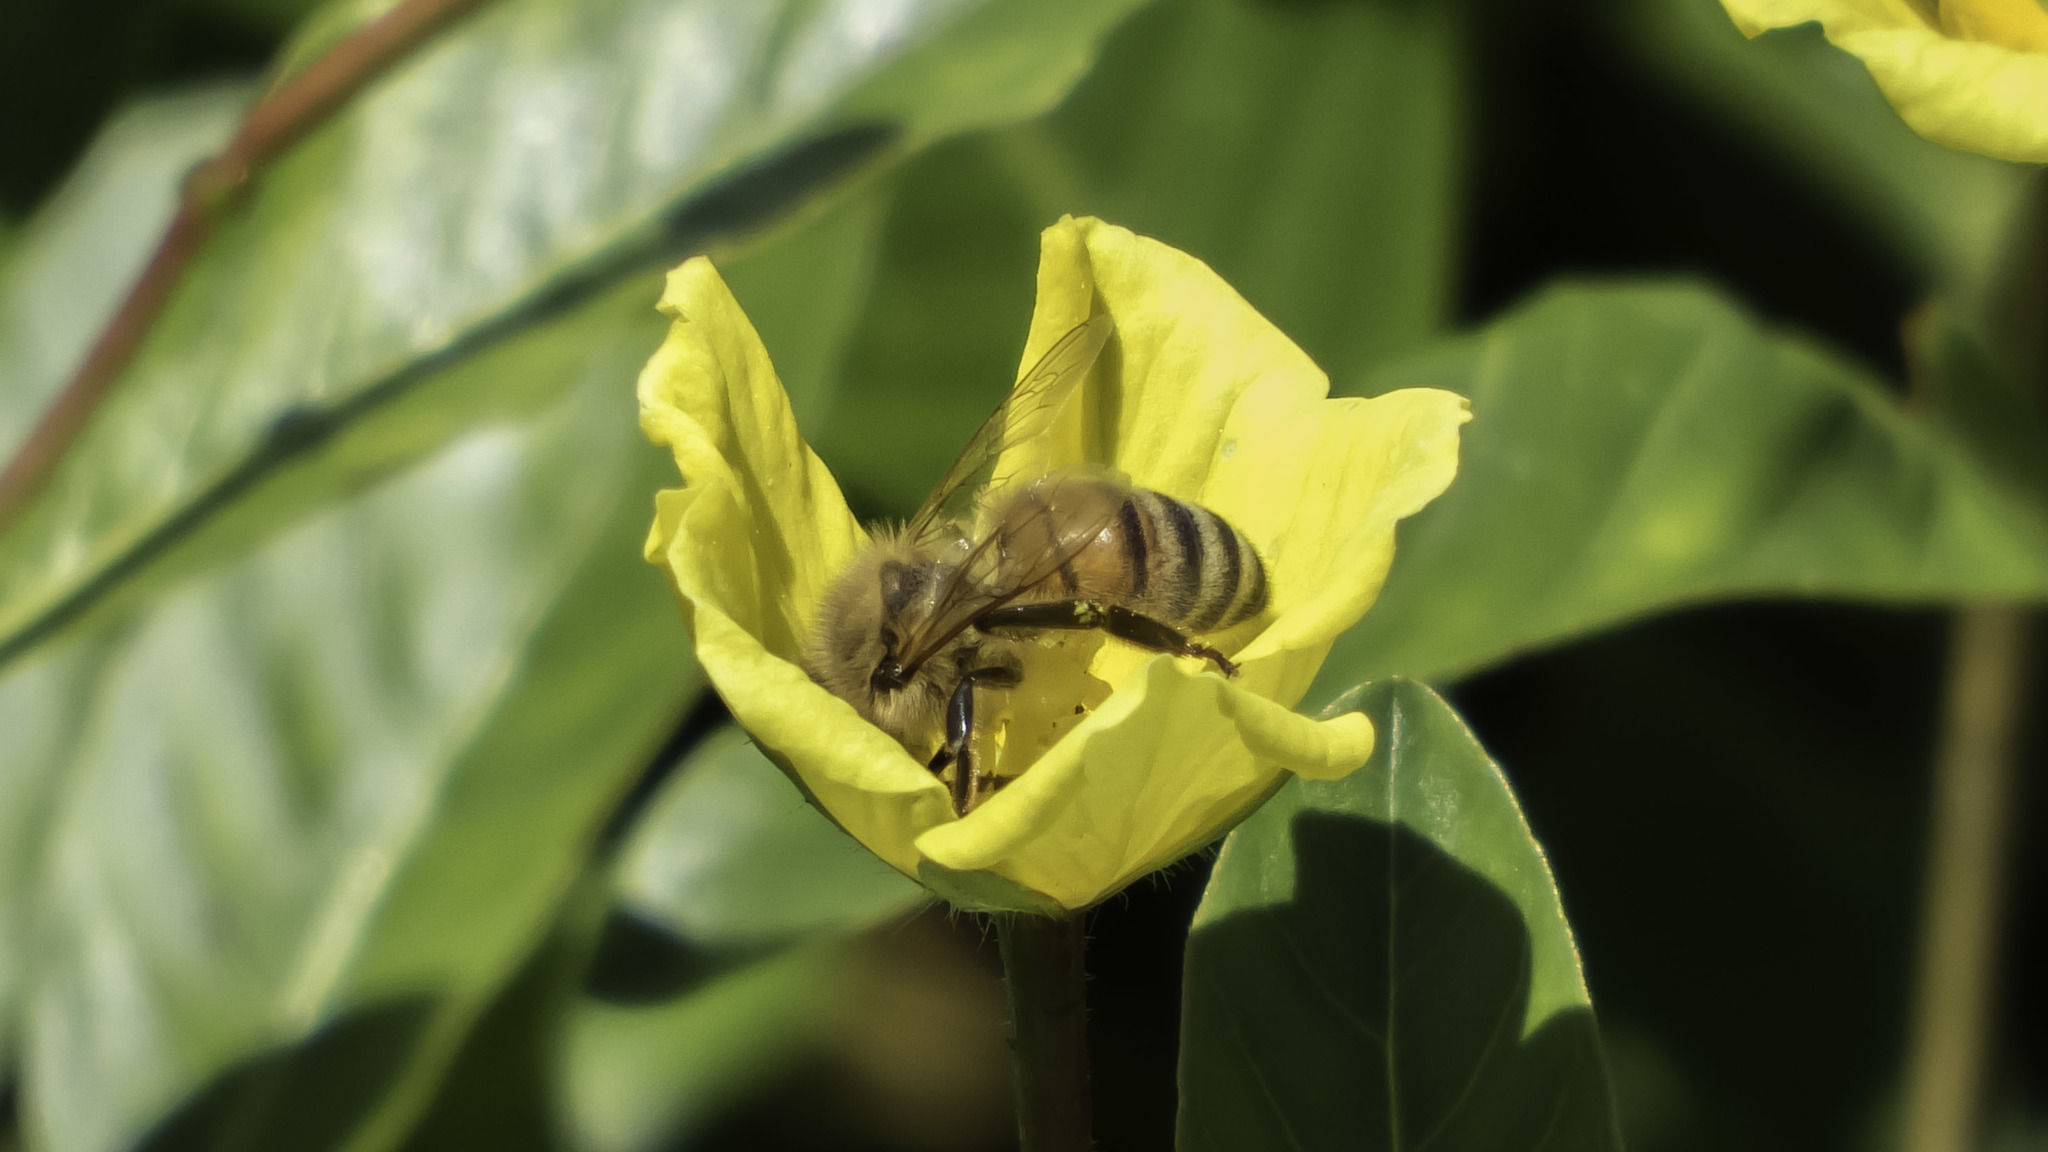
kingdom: Animalia
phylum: Arthropoda
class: Insecta
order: Hymenoptera
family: Apidae
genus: Apis
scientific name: Apis mellifera
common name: Honey bee
